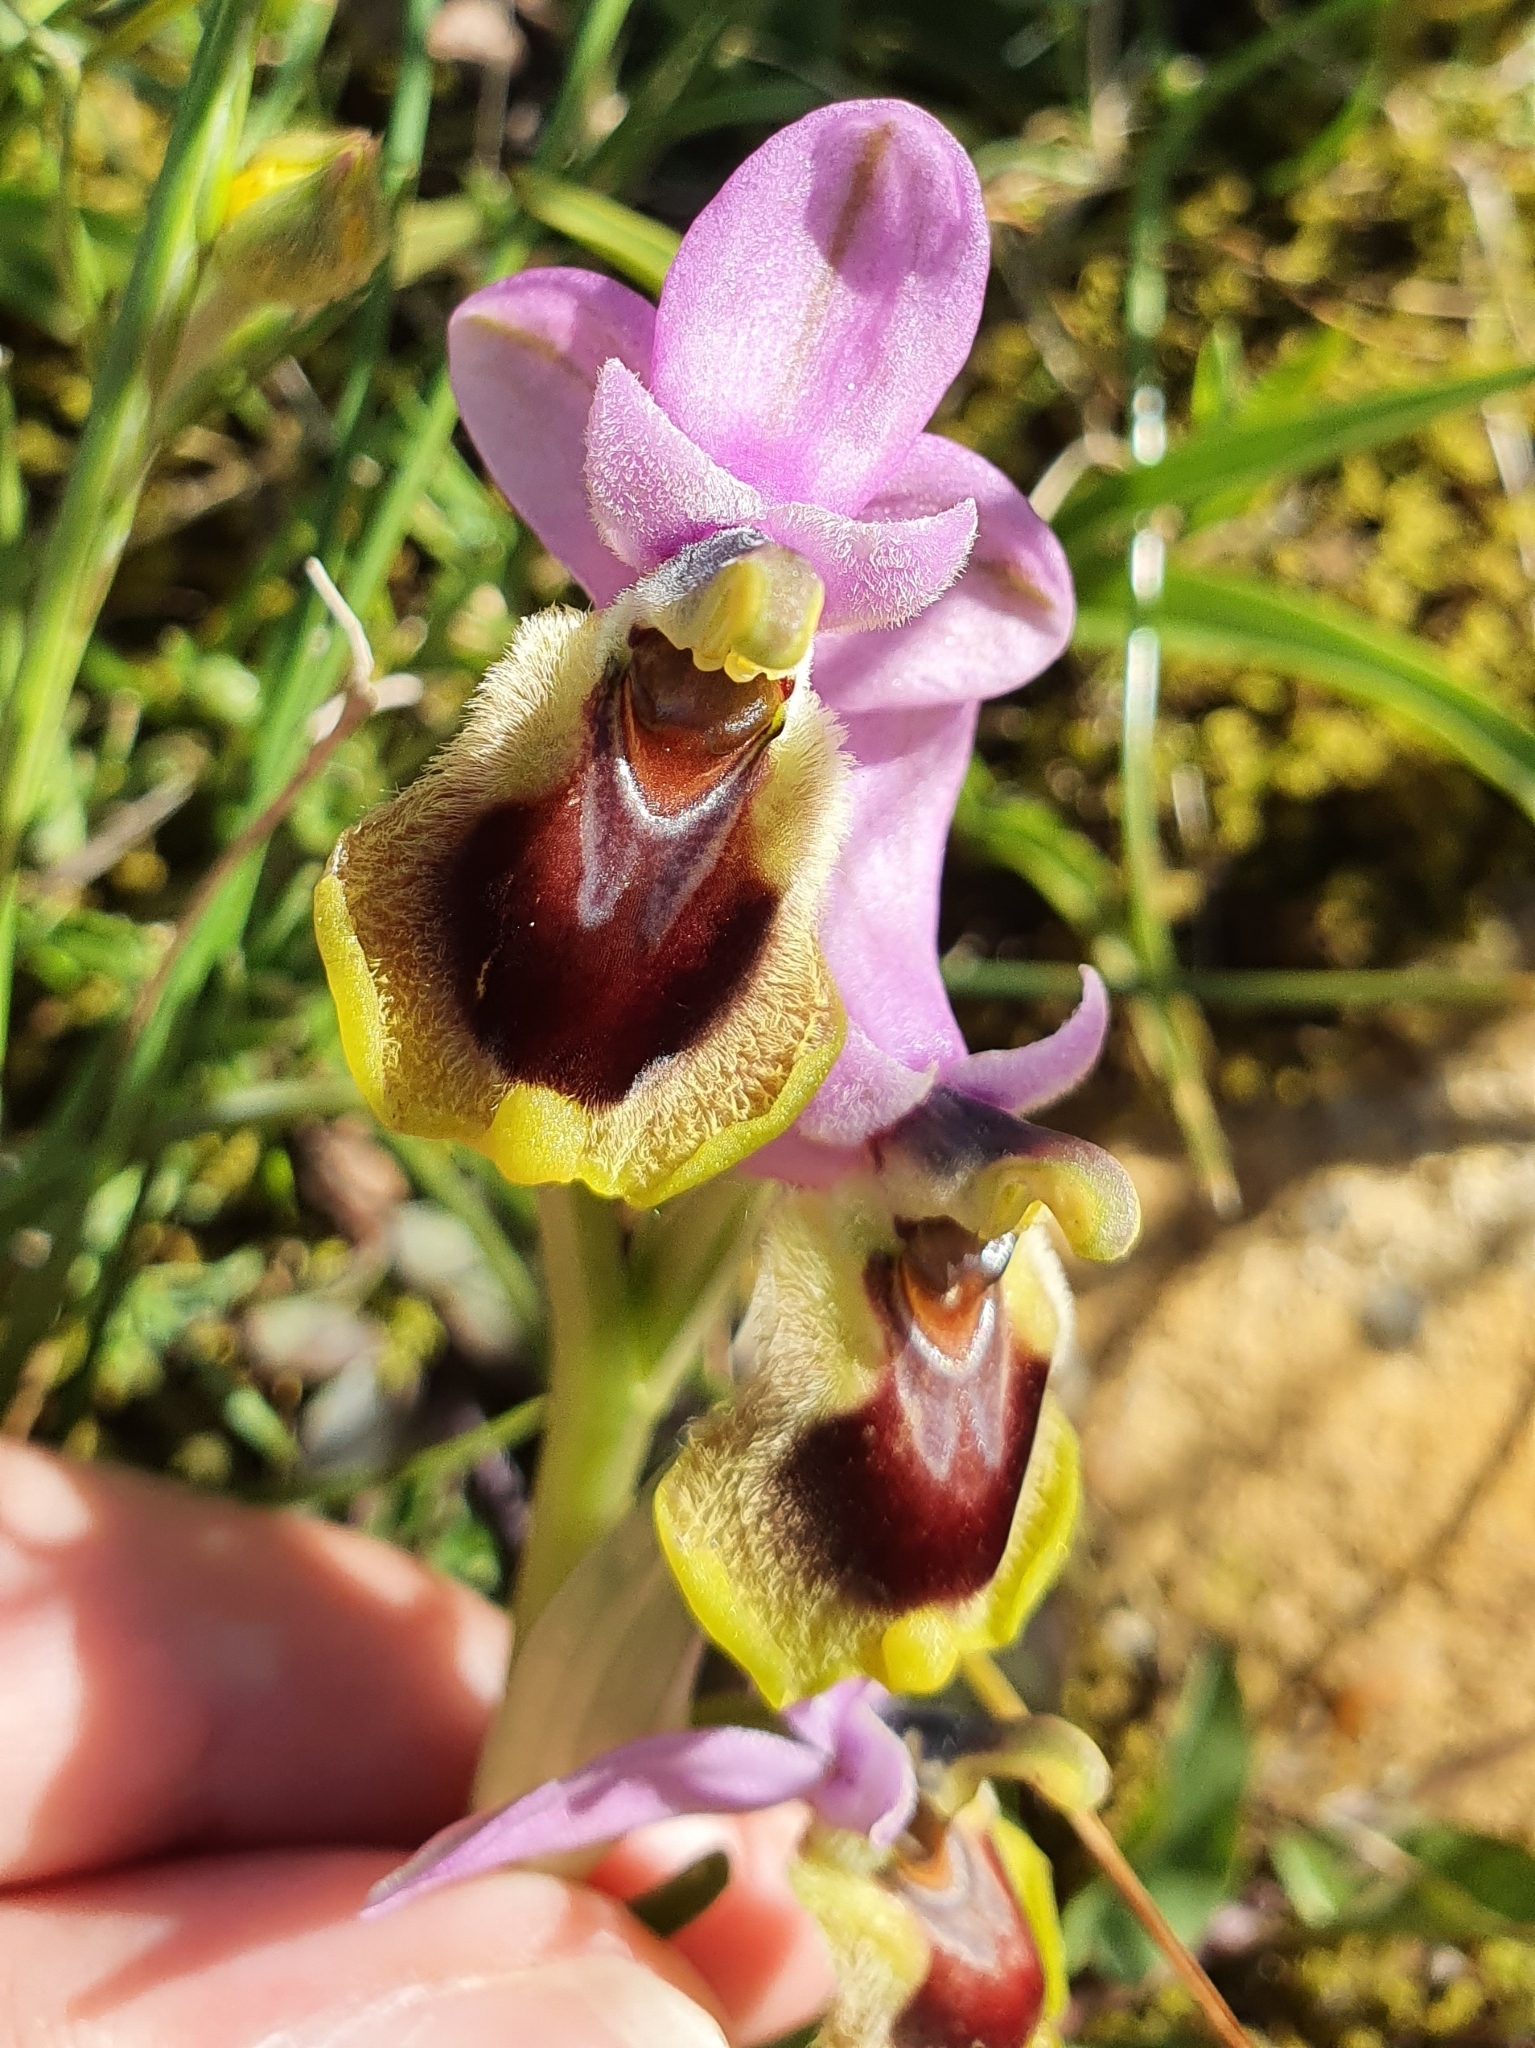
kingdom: Plantae
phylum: Tracheophyta
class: Liliopsida
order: Asparagales
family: Orchidaceae
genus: Ophrys
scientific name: Ophrys tenthredinifera
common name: Sawfly orchid
